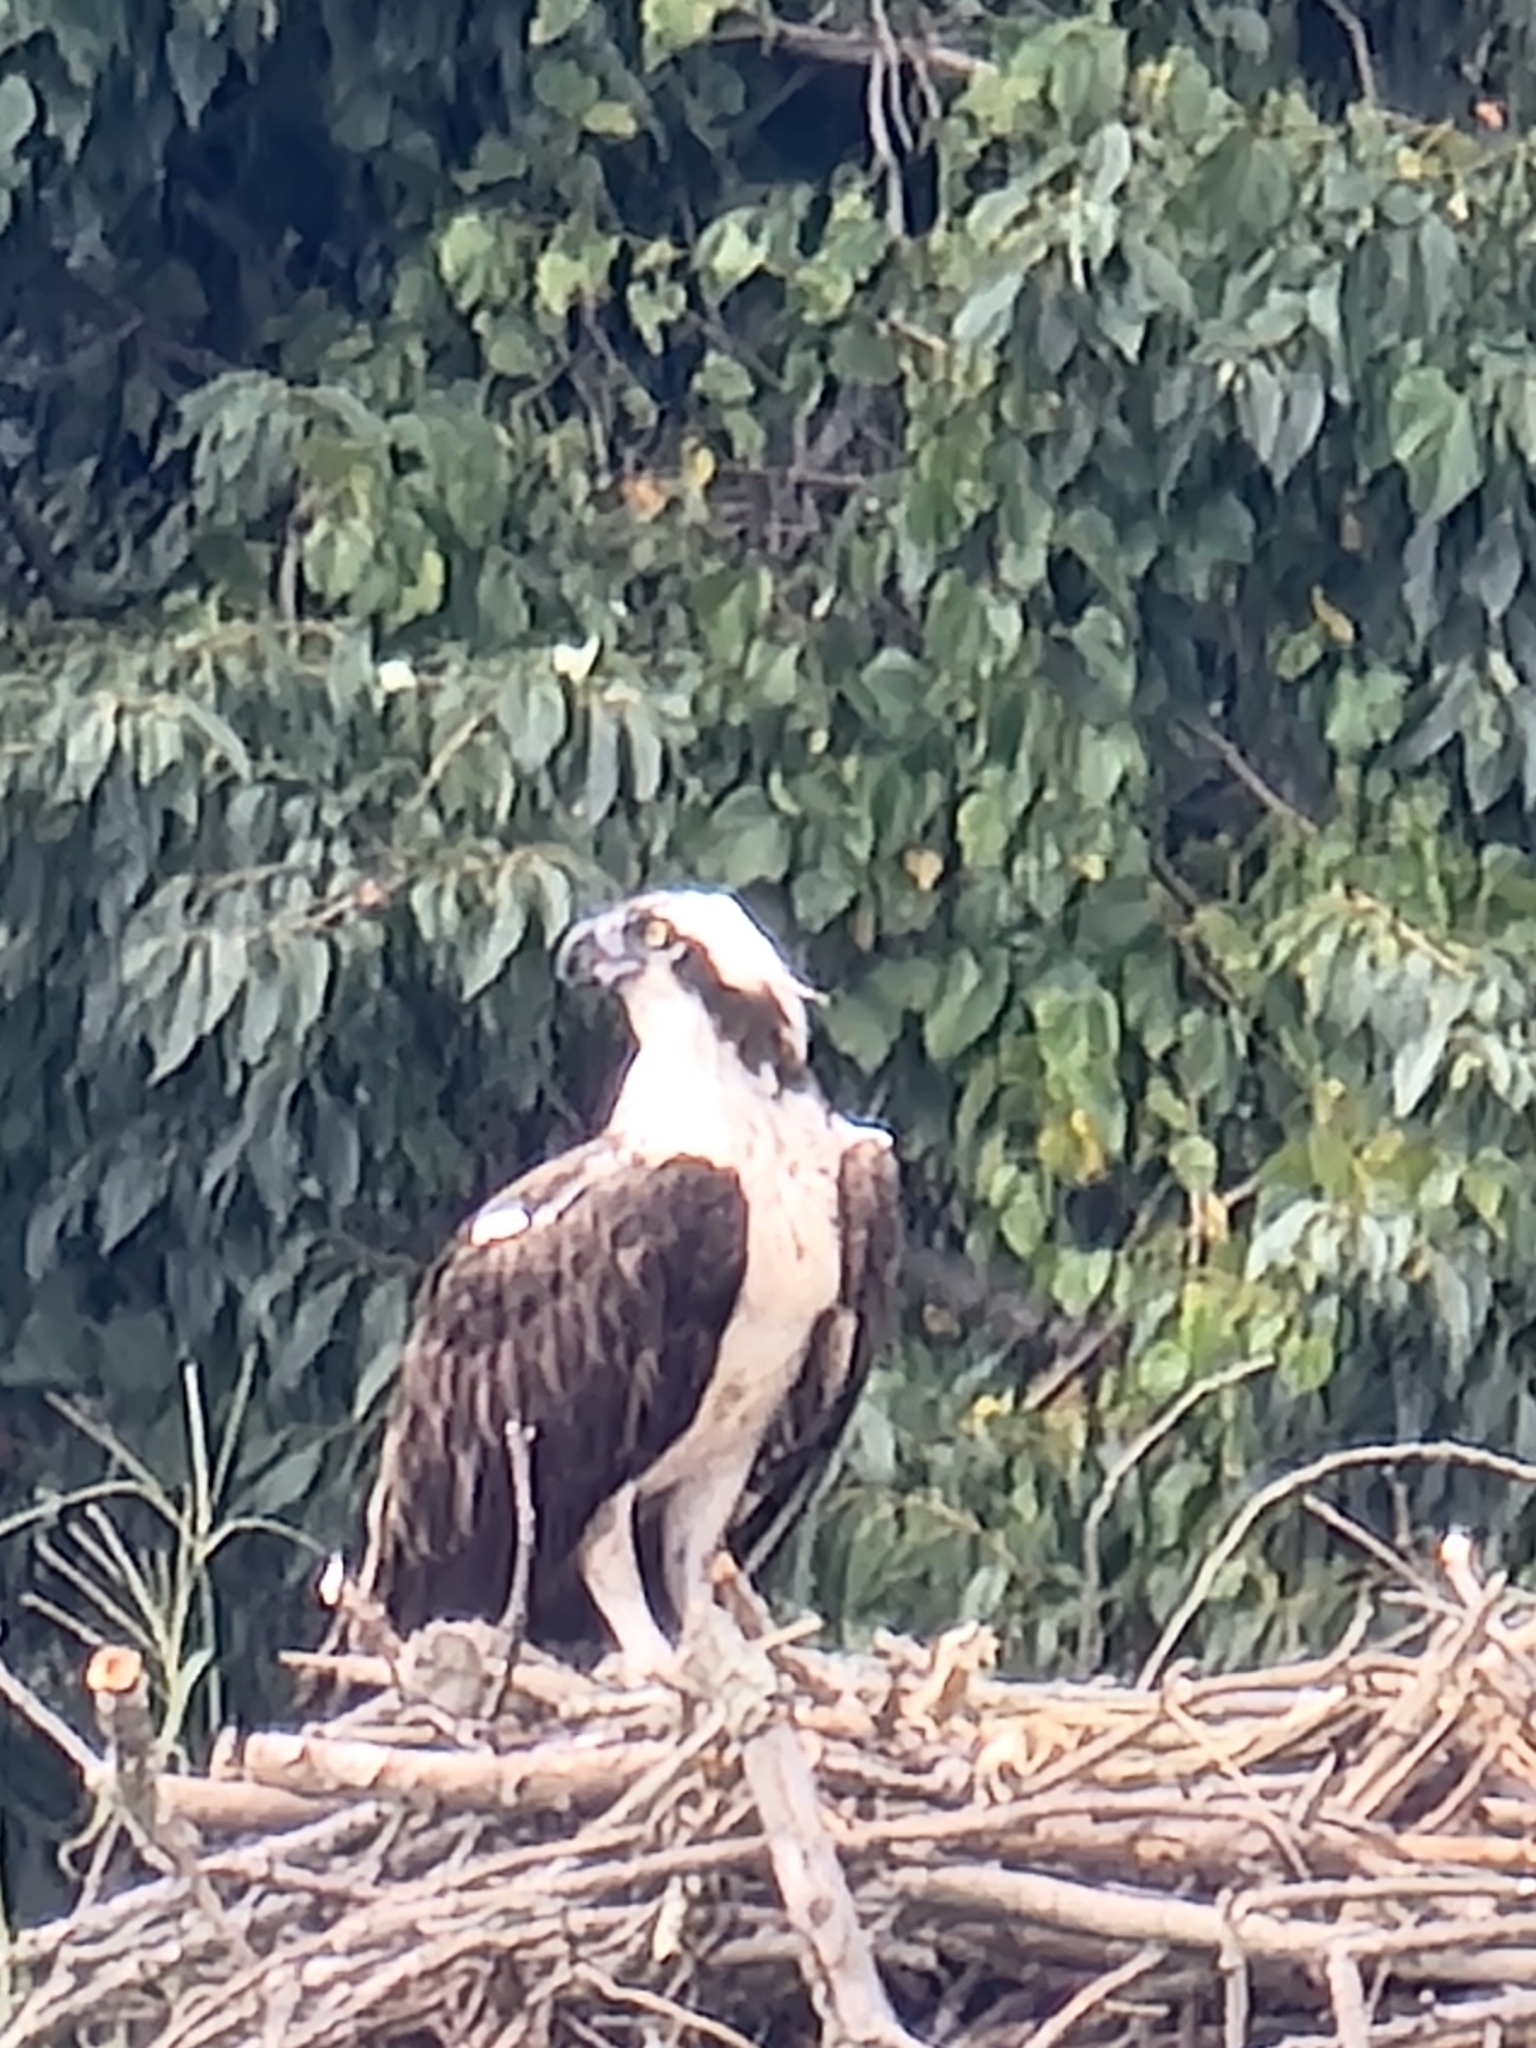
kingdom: Animalia
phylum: Chordata
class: Aves
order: Accipitriformes
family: Pandionidae
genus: Pandion
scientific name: Pandion haliaetus
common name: Osprey
